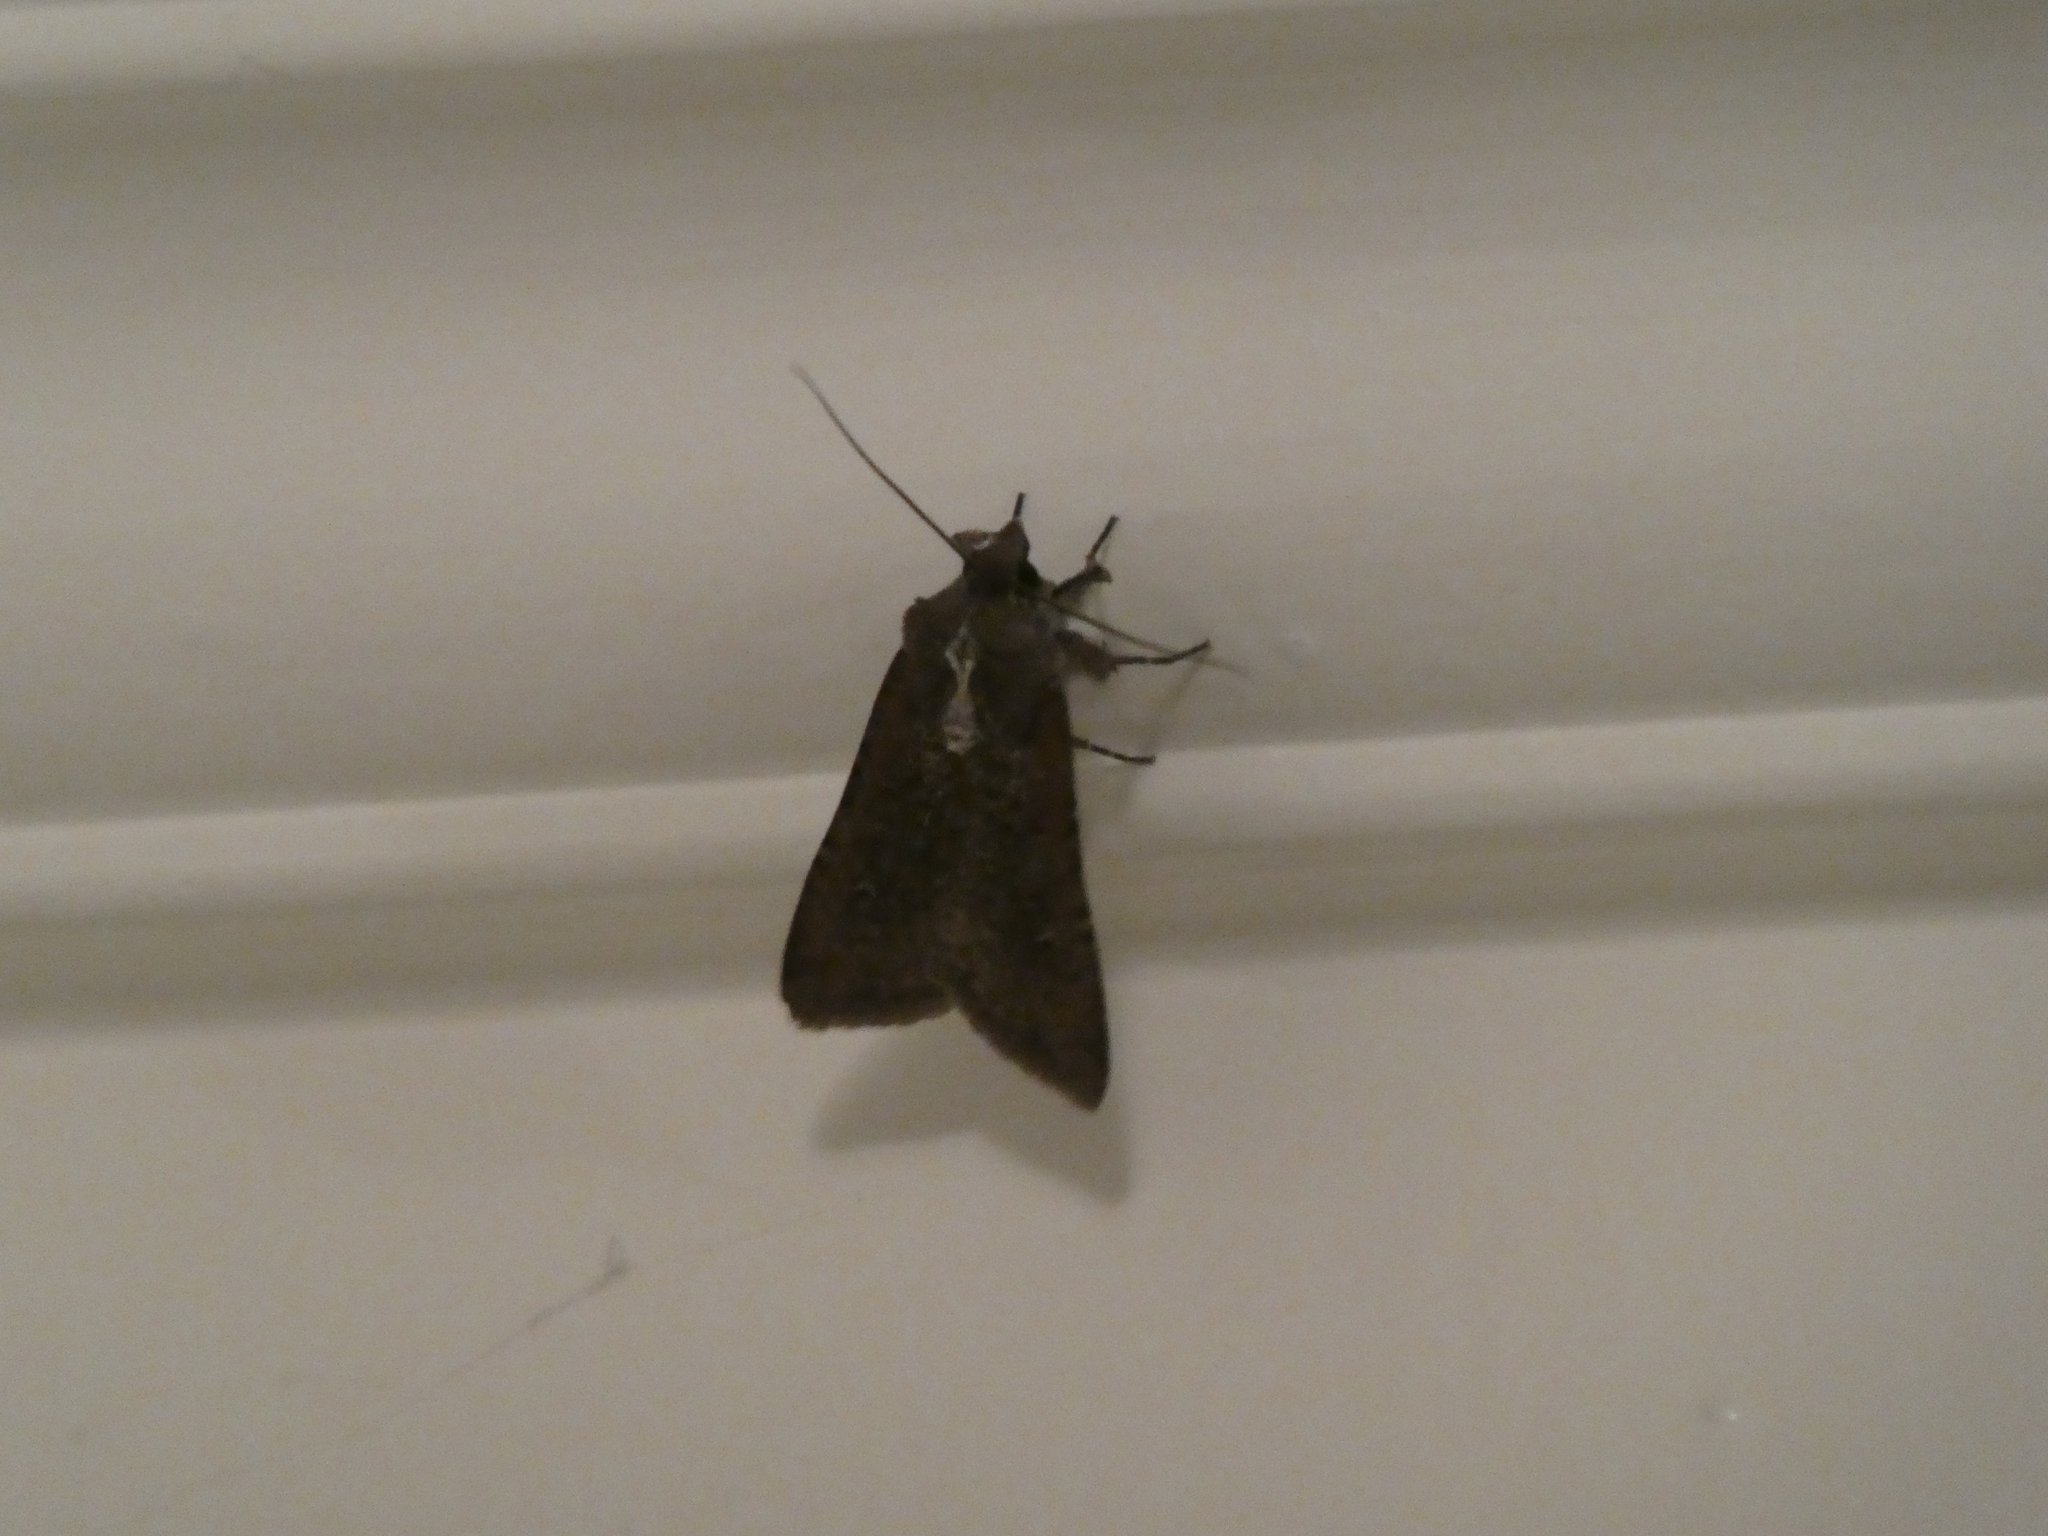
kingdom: Animalia
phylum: Arthropoda
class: Insecta
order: Lepidoptera
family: Noctuidae
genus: Peridroma
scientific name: Peridroma saucia
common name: Pearly underwing
